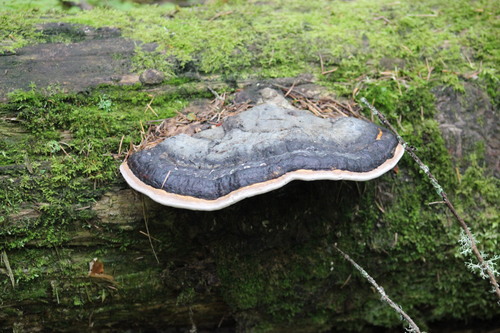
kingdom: Fungi
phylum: Basidiomycota
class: Agaricomycetes
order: Polyporales
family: Fomitopsidaceae
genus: Fomitopsis
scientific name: Fomitopsis pinicola
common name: Red-belted bracket
